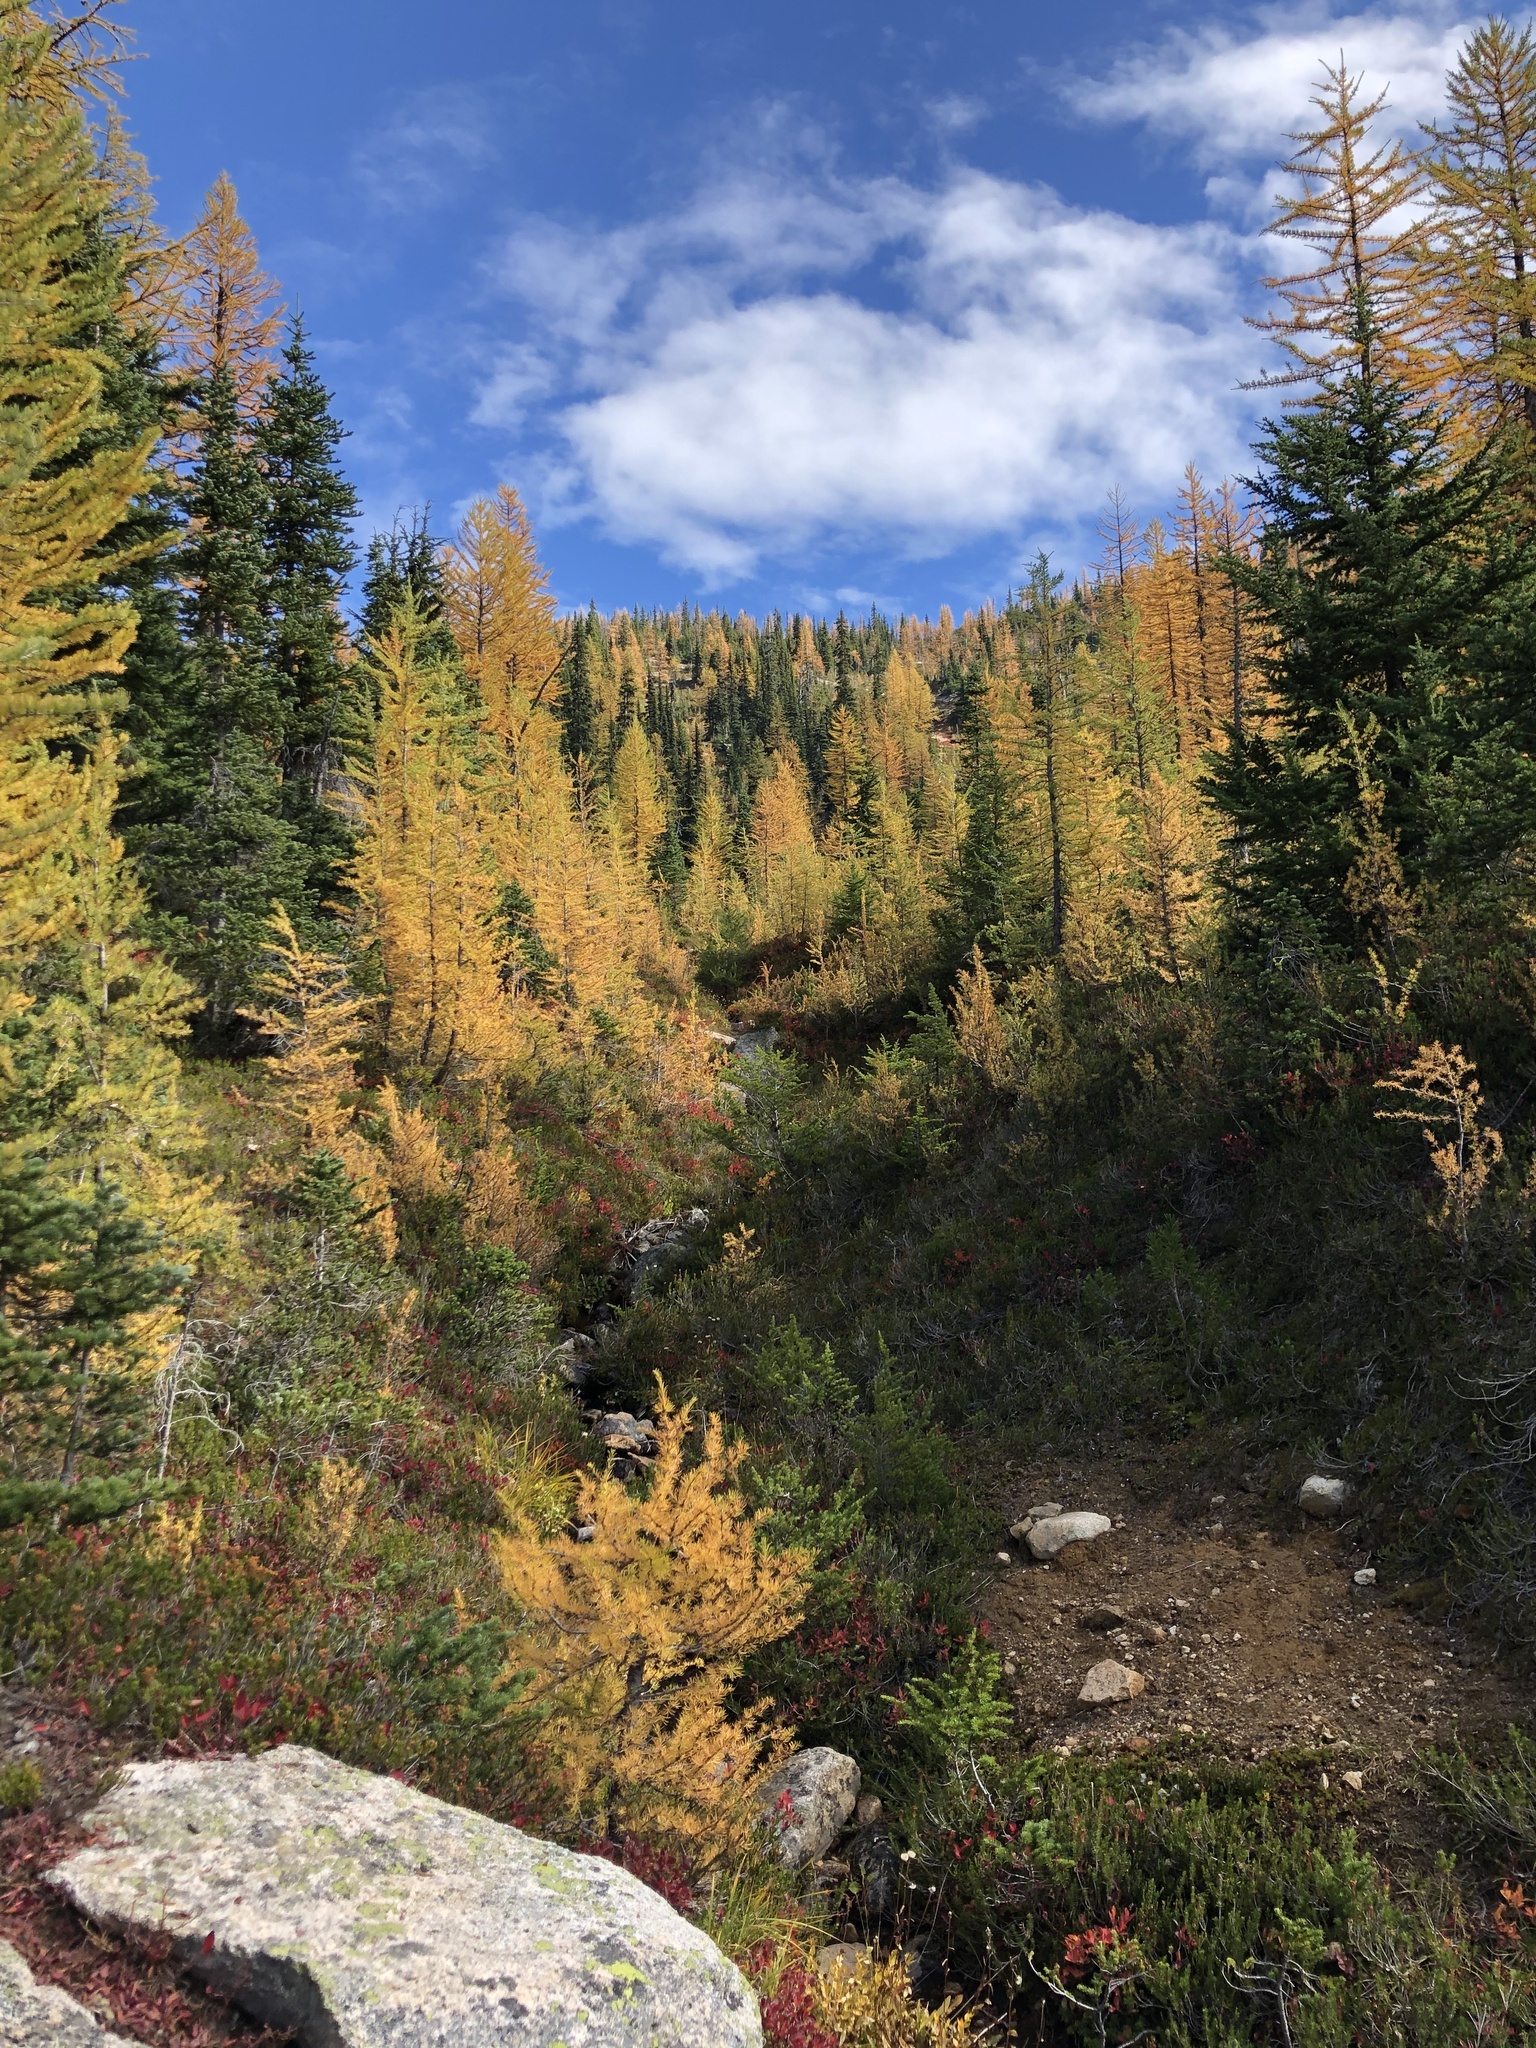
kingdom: Plantae
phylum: Tracheophyta
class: Pinopsida
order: Pinales
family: Pinaceae
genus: Larix
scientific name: Larix lyallii
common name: Alpine larch
